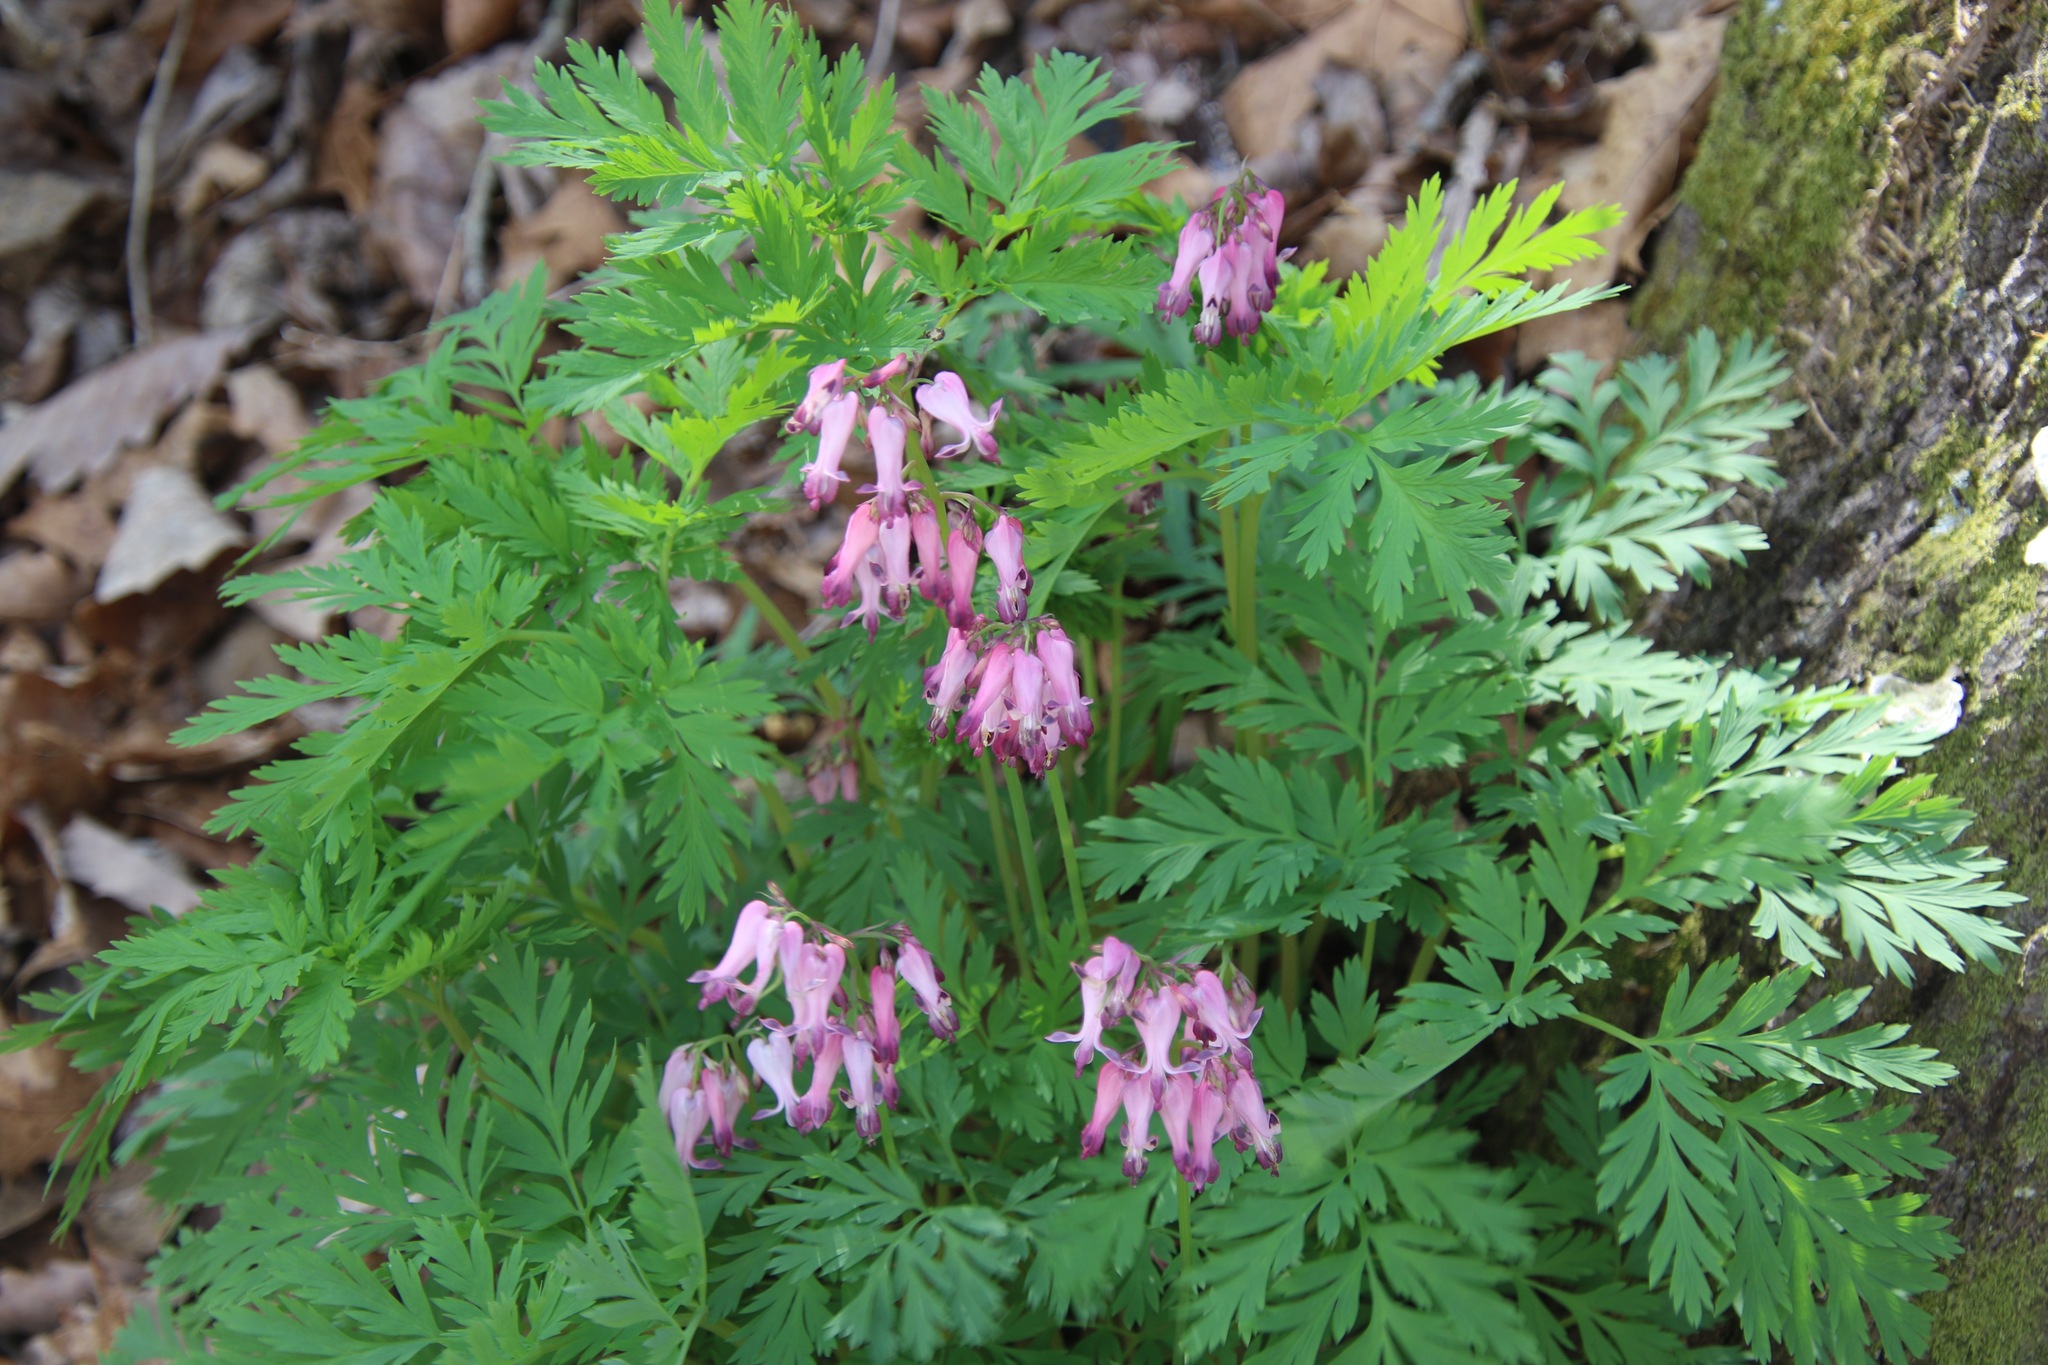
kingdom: Plantae
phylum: Tracheophyta
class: Magnoliopsida
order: Ranunculales
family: Papaveraceae
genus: Dicentra
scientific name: Dicentra eximia
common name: Turkey-corn
